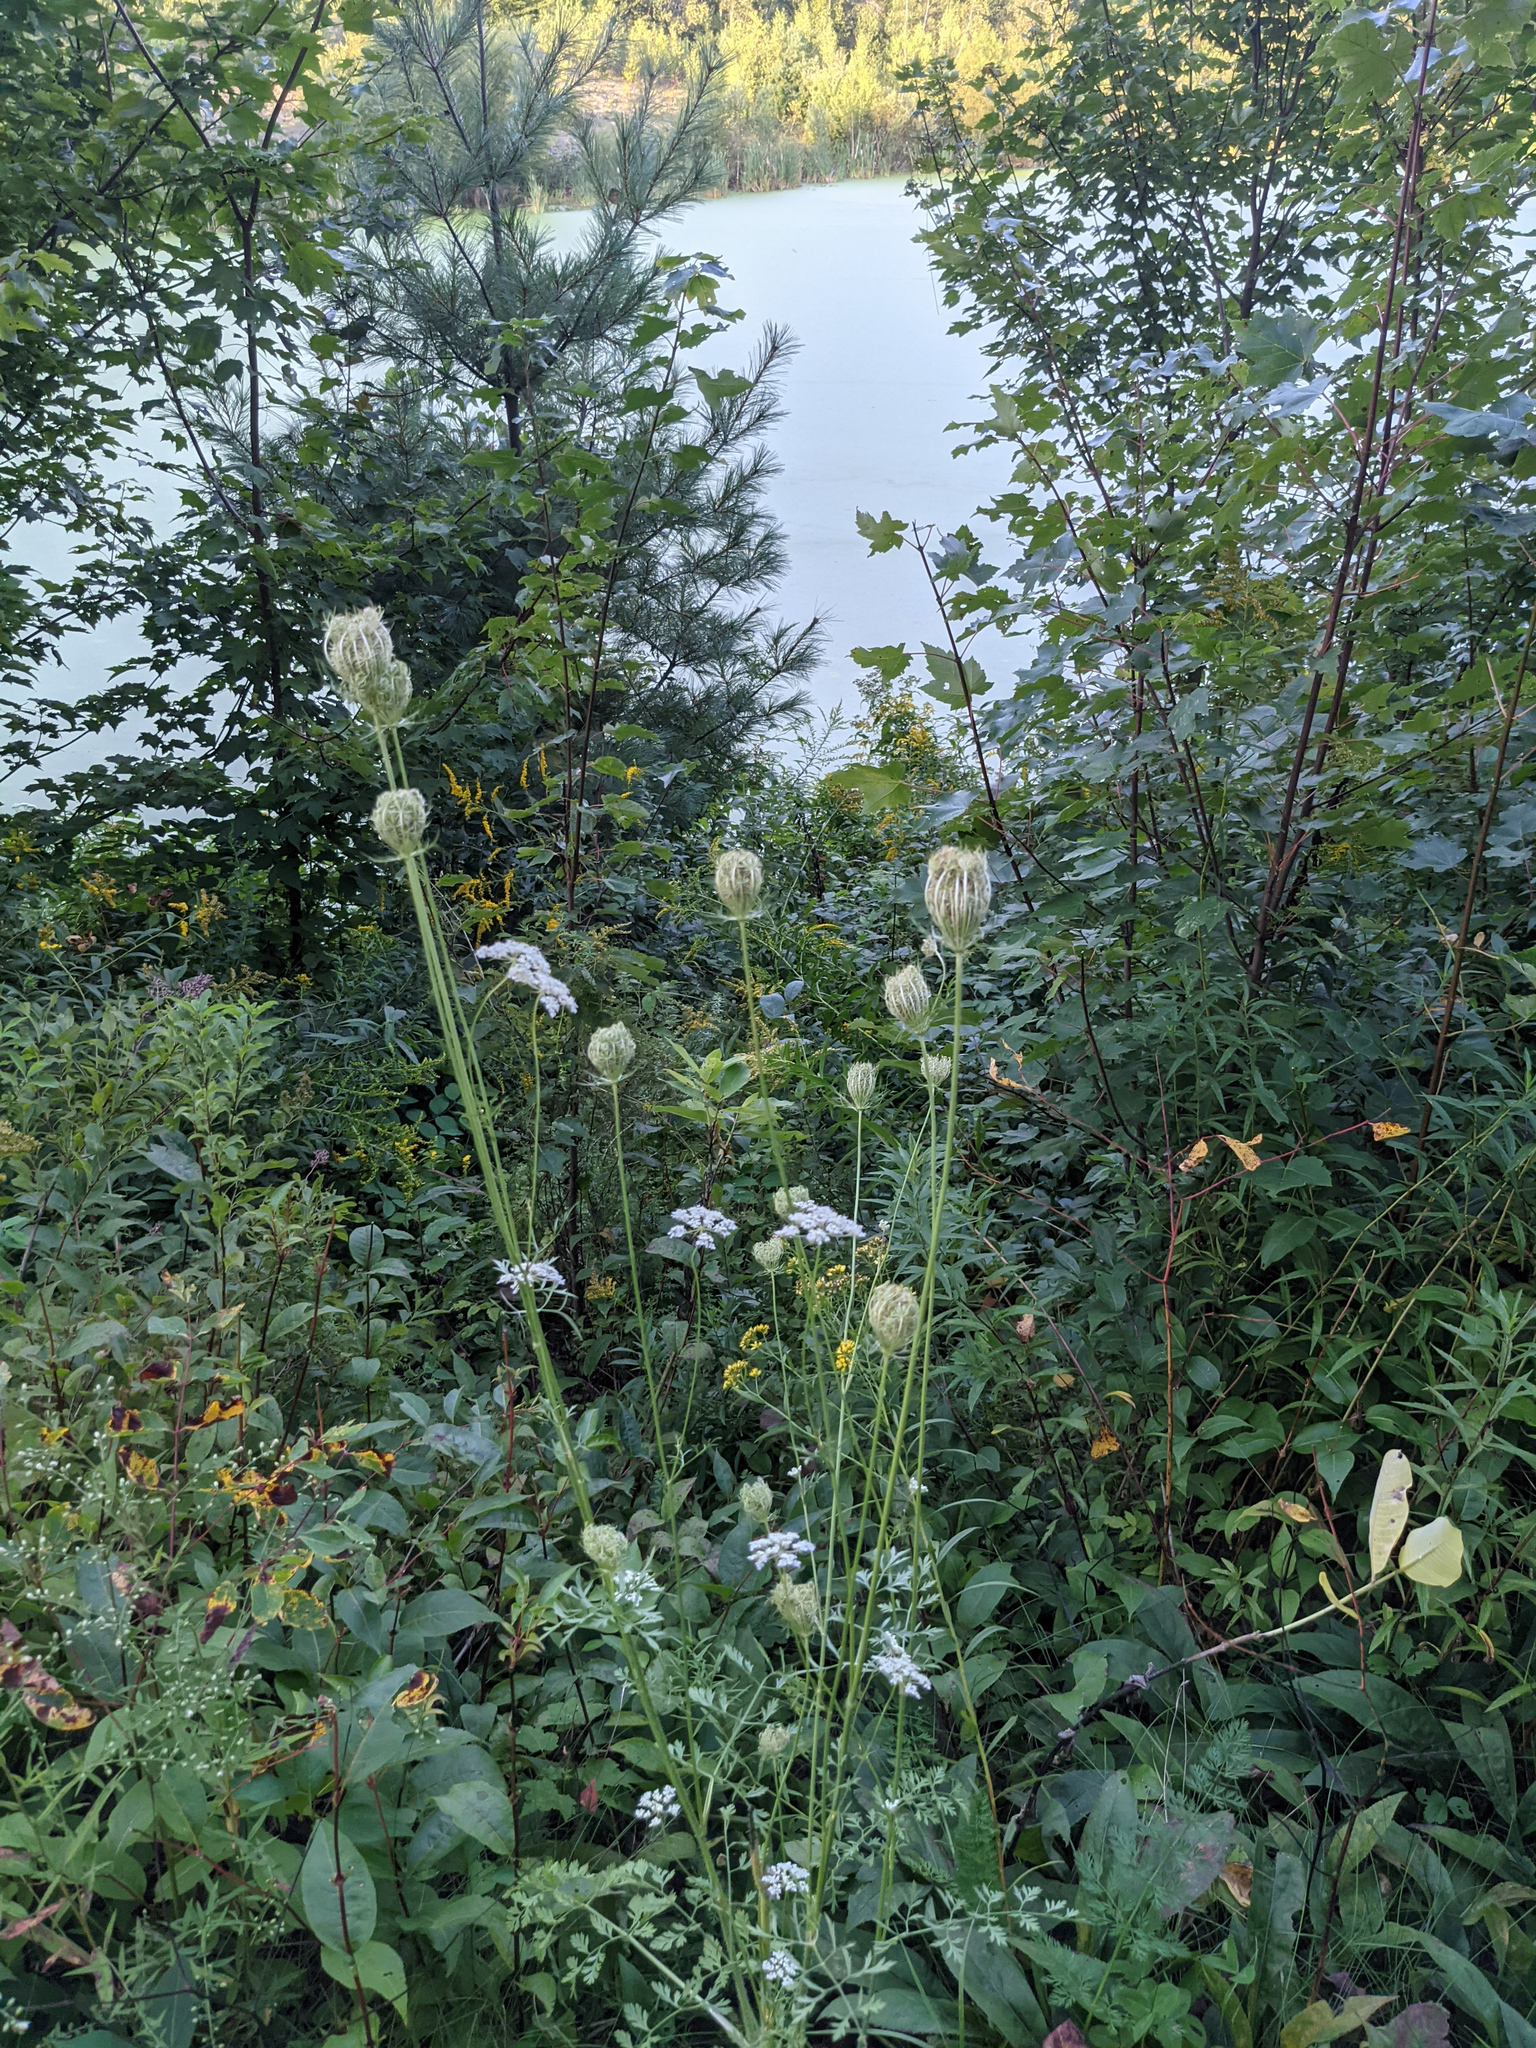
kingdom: Plantae
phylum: Tracheophyta
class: Magnoliopsida
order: Apiales
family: Apiaceae
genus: Daucus
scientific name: Daucus carota
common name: Wild carrot
